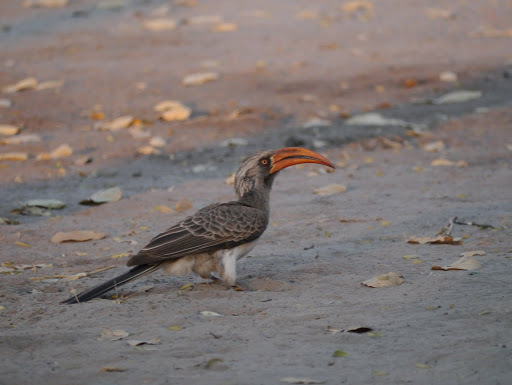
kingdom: Animalia
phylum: Chordata
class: Aves
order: Bucerotiformes
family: Bucerotidae
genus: Lophoceros
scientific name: Lophoceros bradfieldi
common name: Bradfield's hornbill
